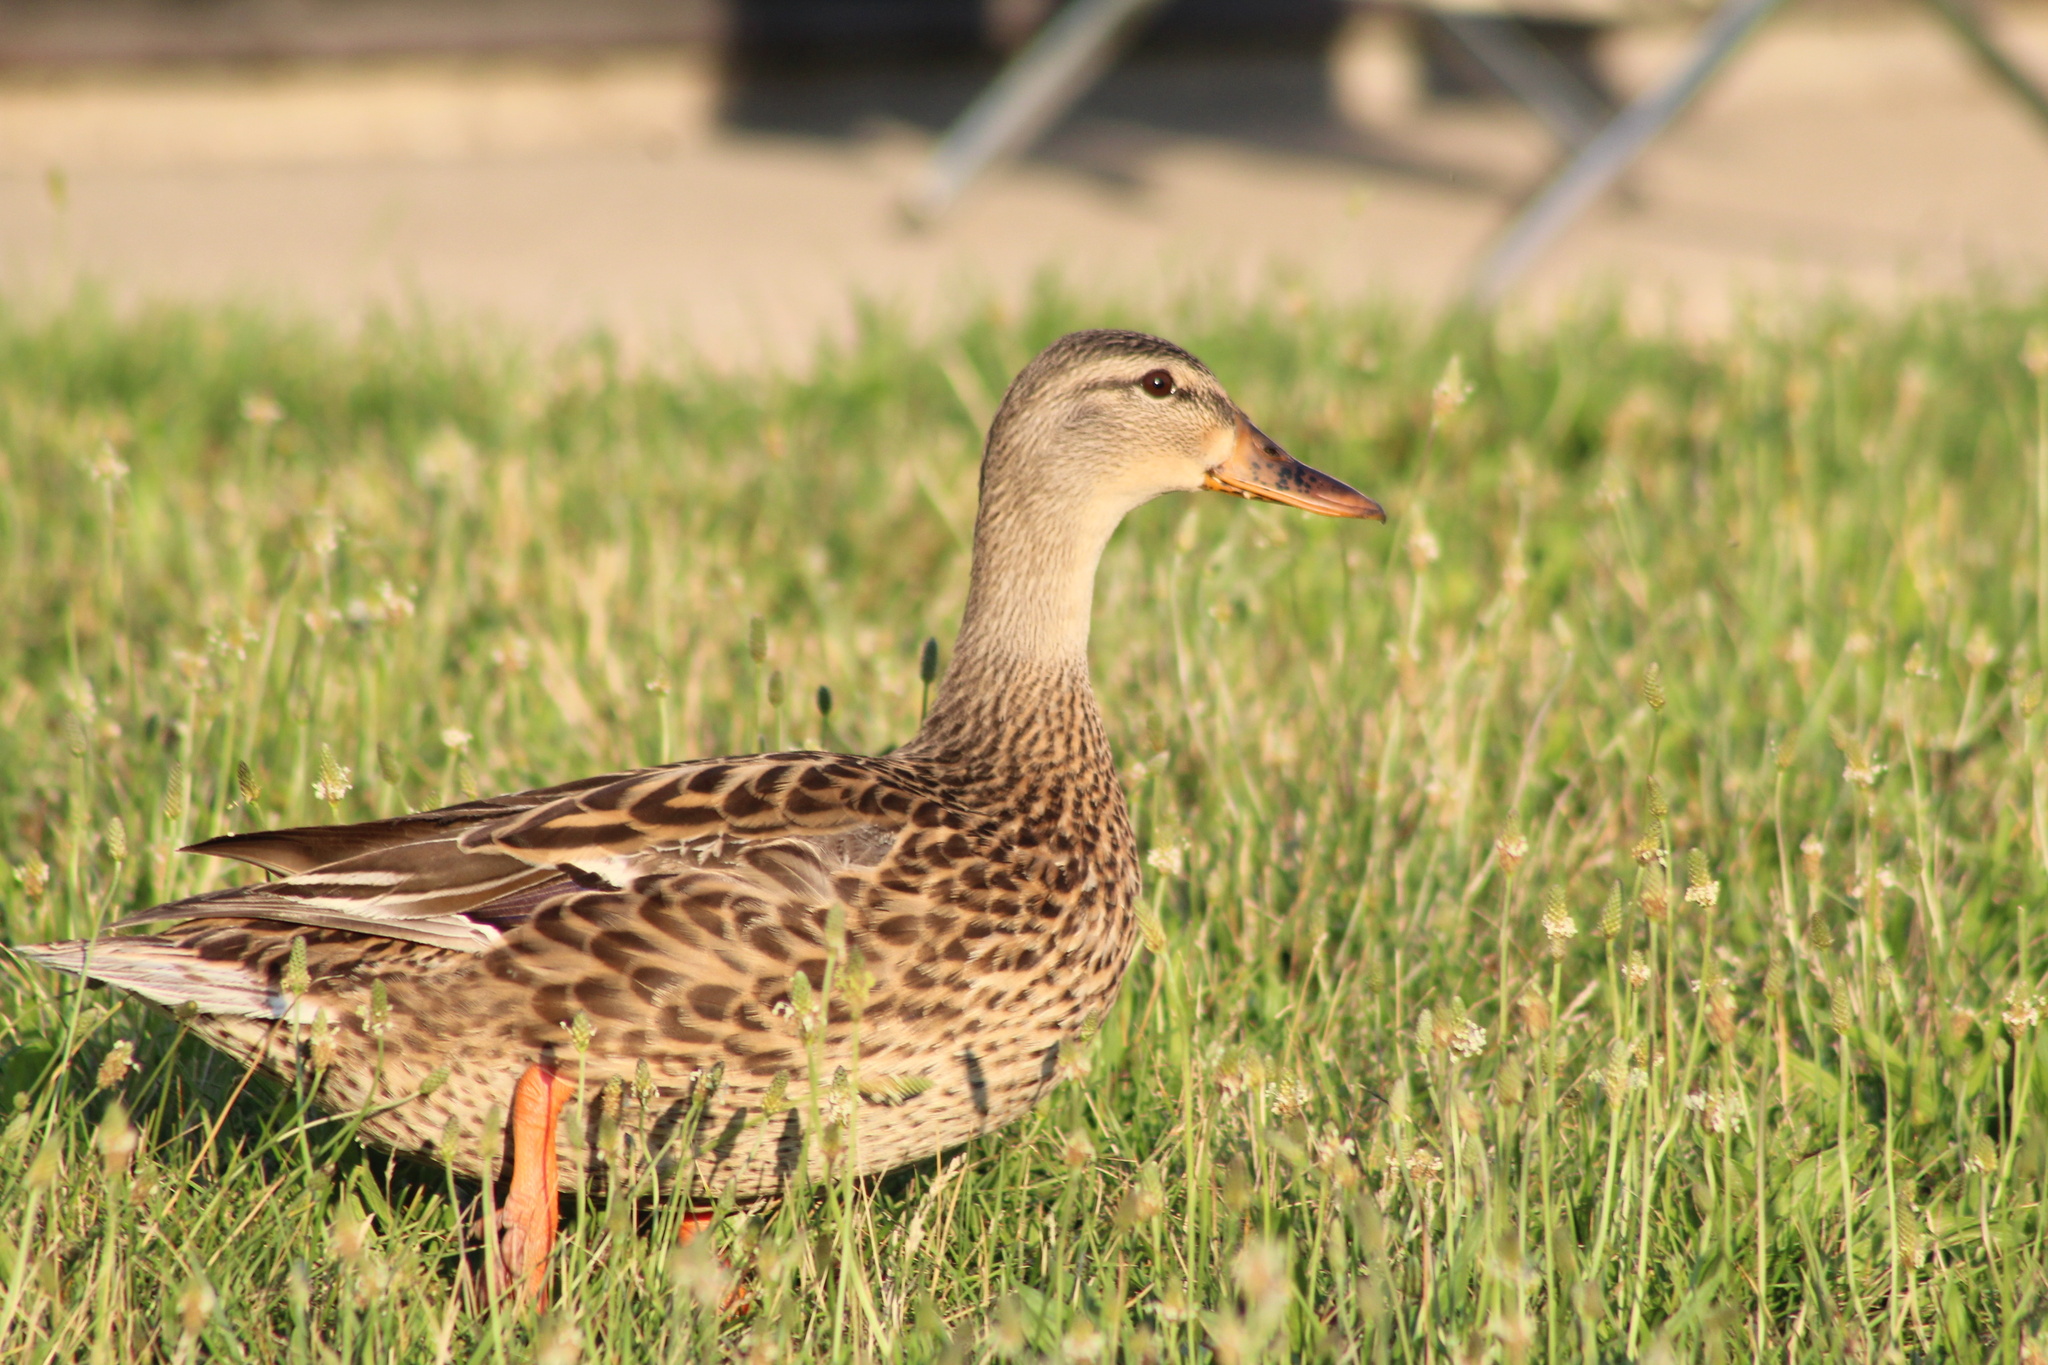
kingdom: Animalia
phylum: Chordata
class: Aves
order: Anseriformes
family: Anatidae
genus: Anas
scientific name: Anas platyrhynchos
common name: Mallard
